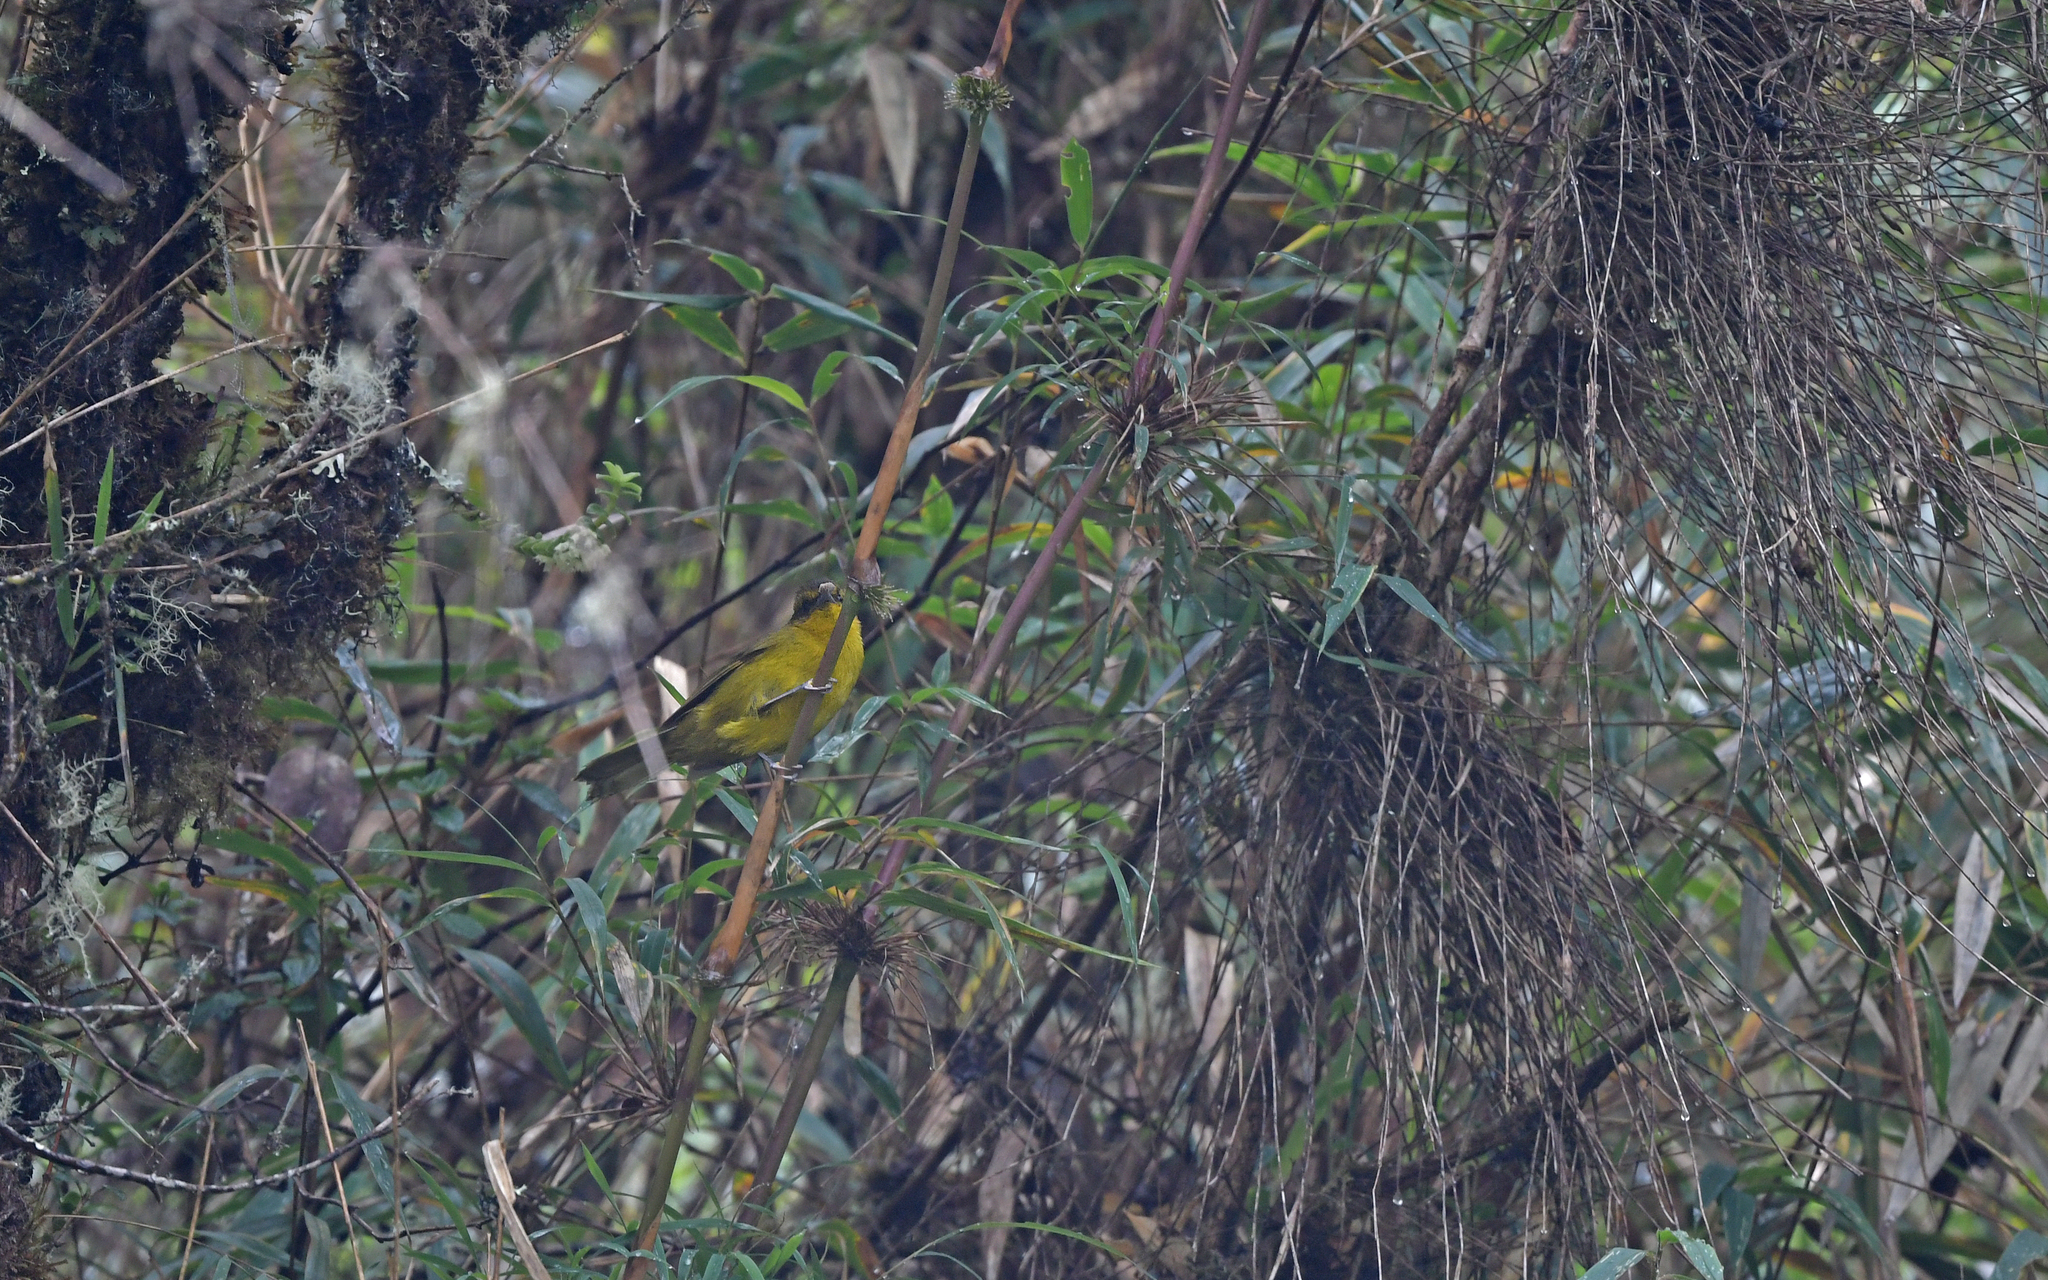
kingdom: Animalia
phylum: Chordata
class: Aves
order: Passeriformes
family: Thraupidae
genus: Kleinothraupis
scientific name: Kleinothraupis parodii
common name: Parodi's hemispingus
